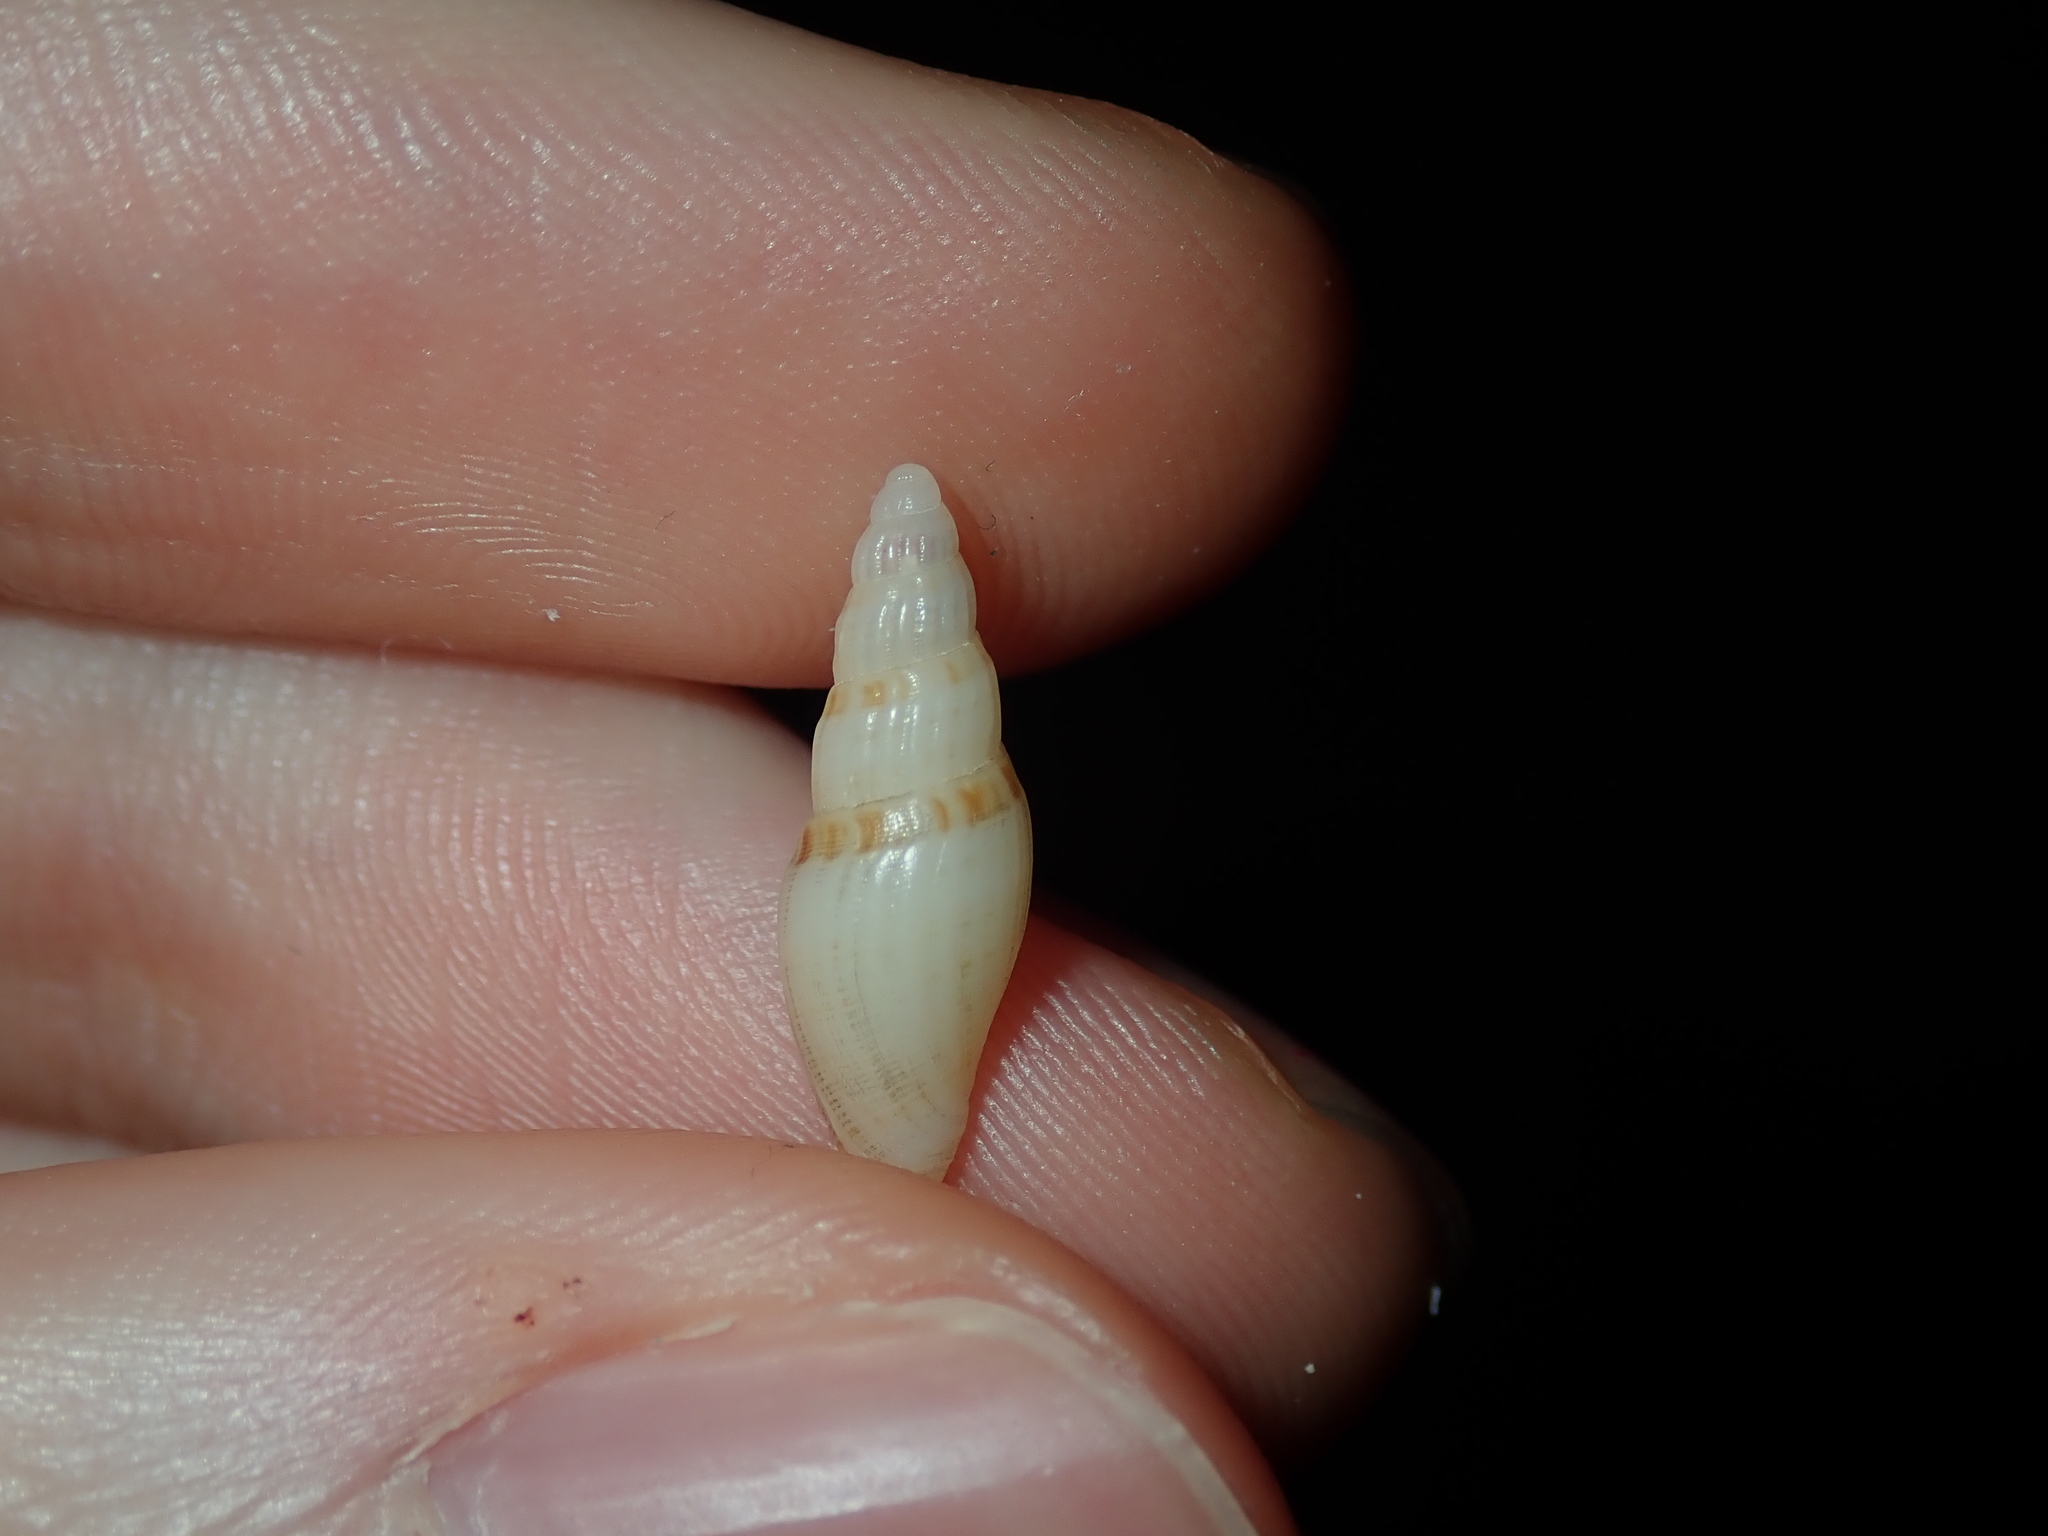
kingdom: Animalia
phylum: Mollusca
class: Gastropoda
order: Neogastropoda
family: Mangeliidae
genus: Mitraguraleus
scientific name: Mitraguraleus mitralis
